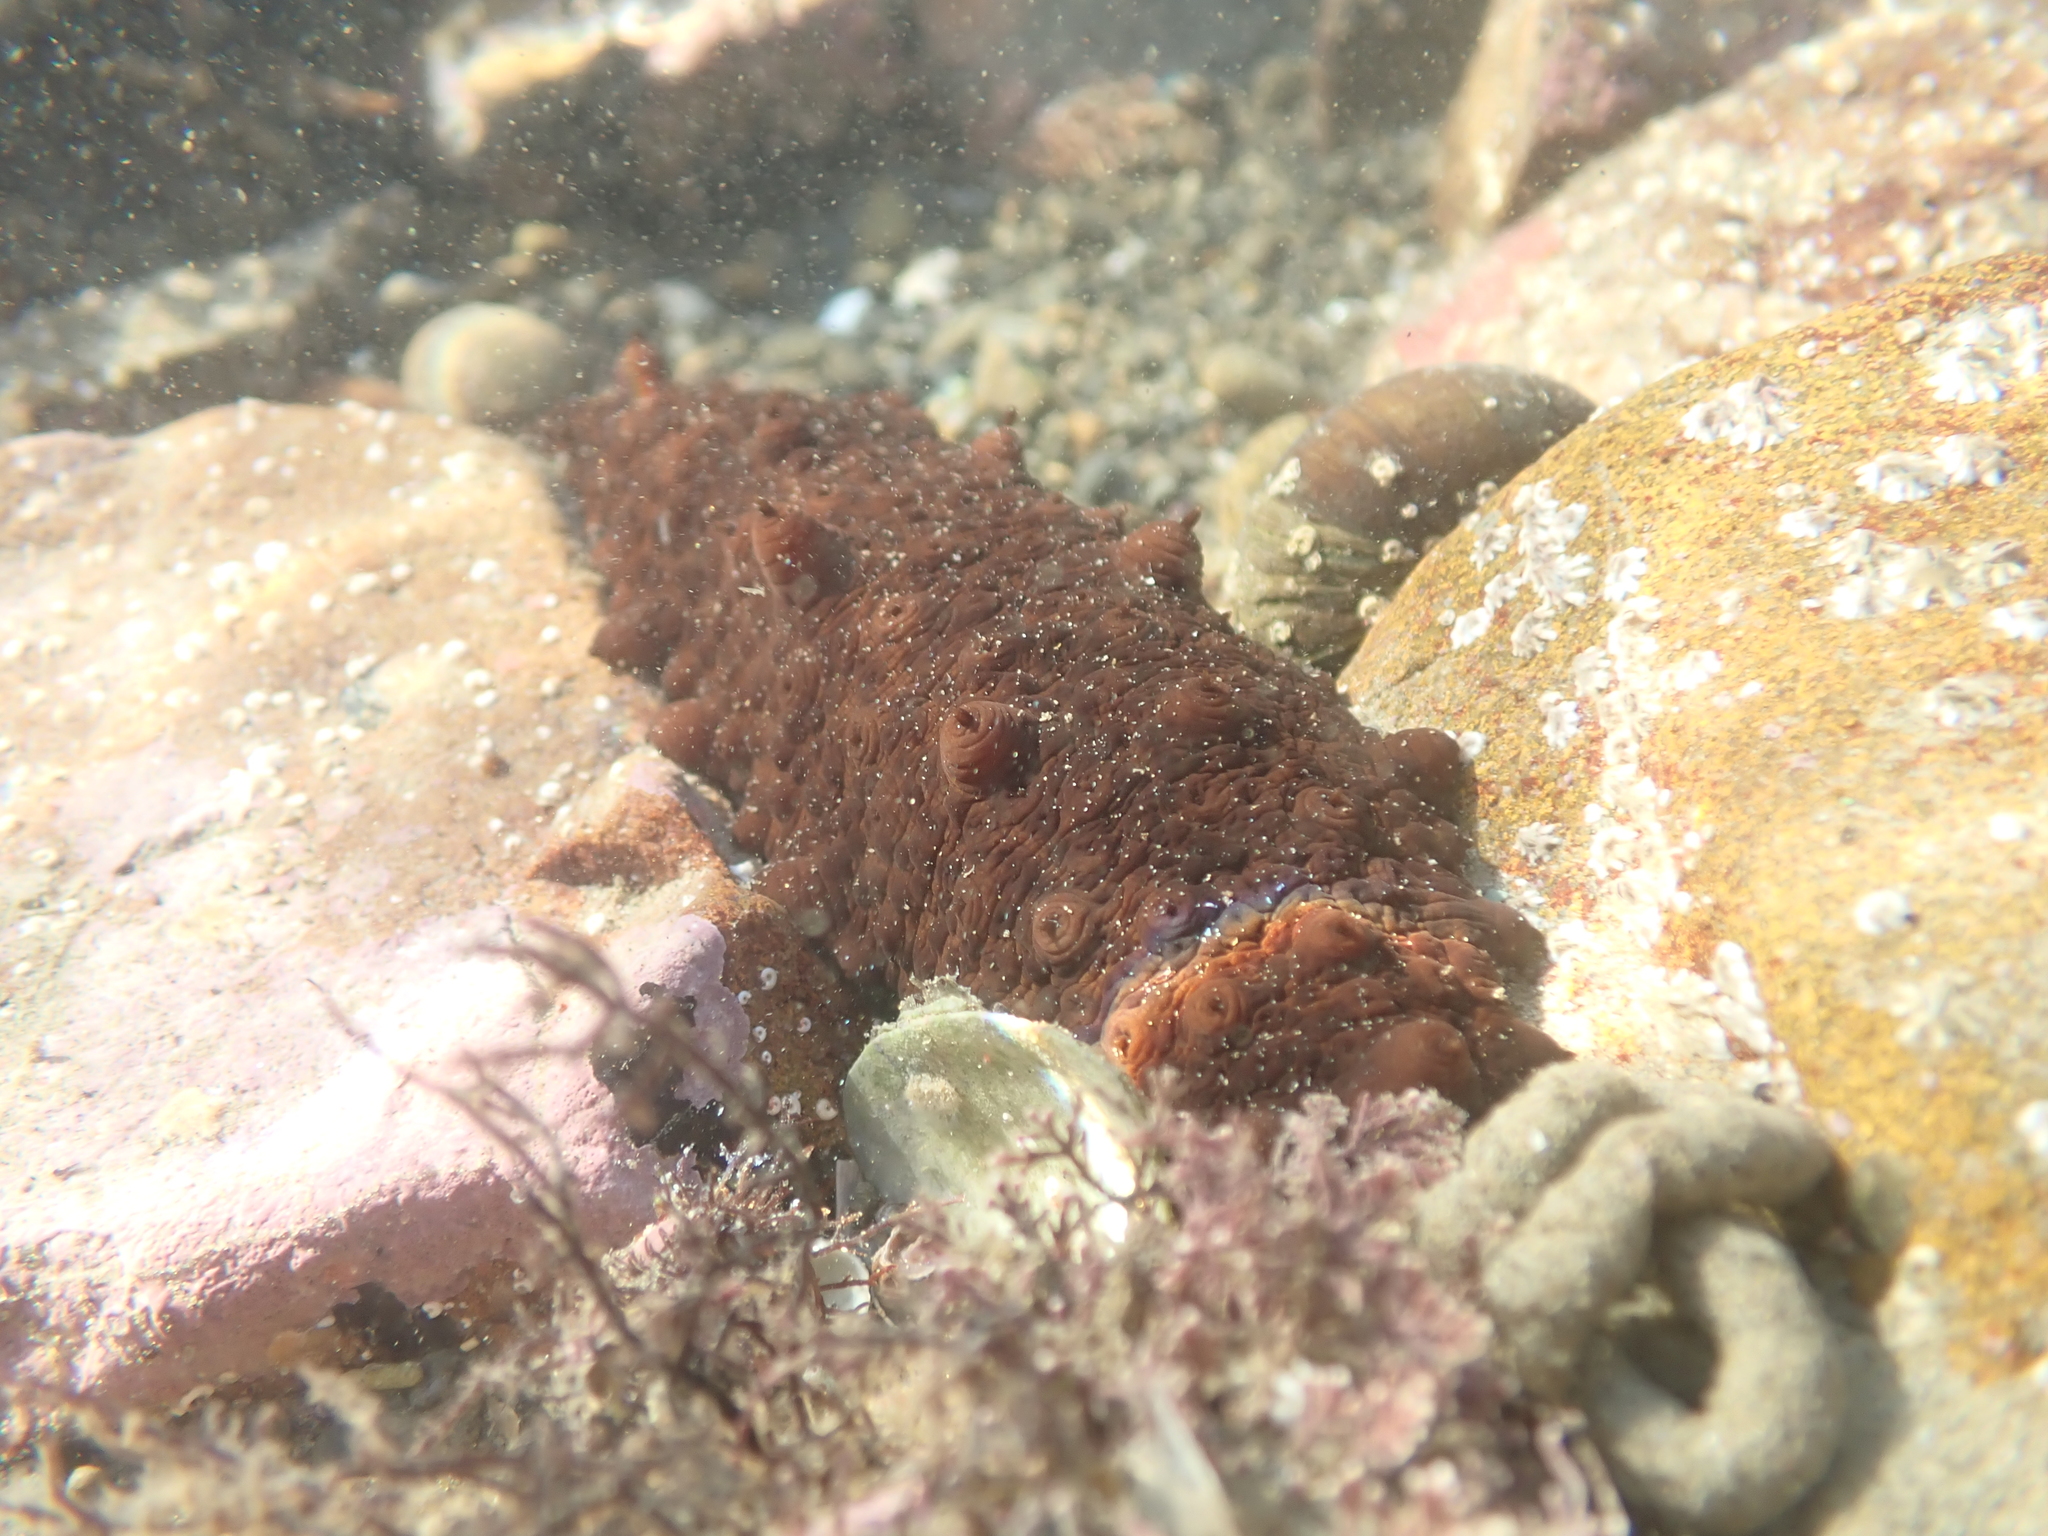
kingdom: Animalia
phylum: Echinodermata
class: Holothuroidea
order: Synallactida
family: Stichopodidae
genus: Australostichopus
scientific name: Australostichopus mollis
